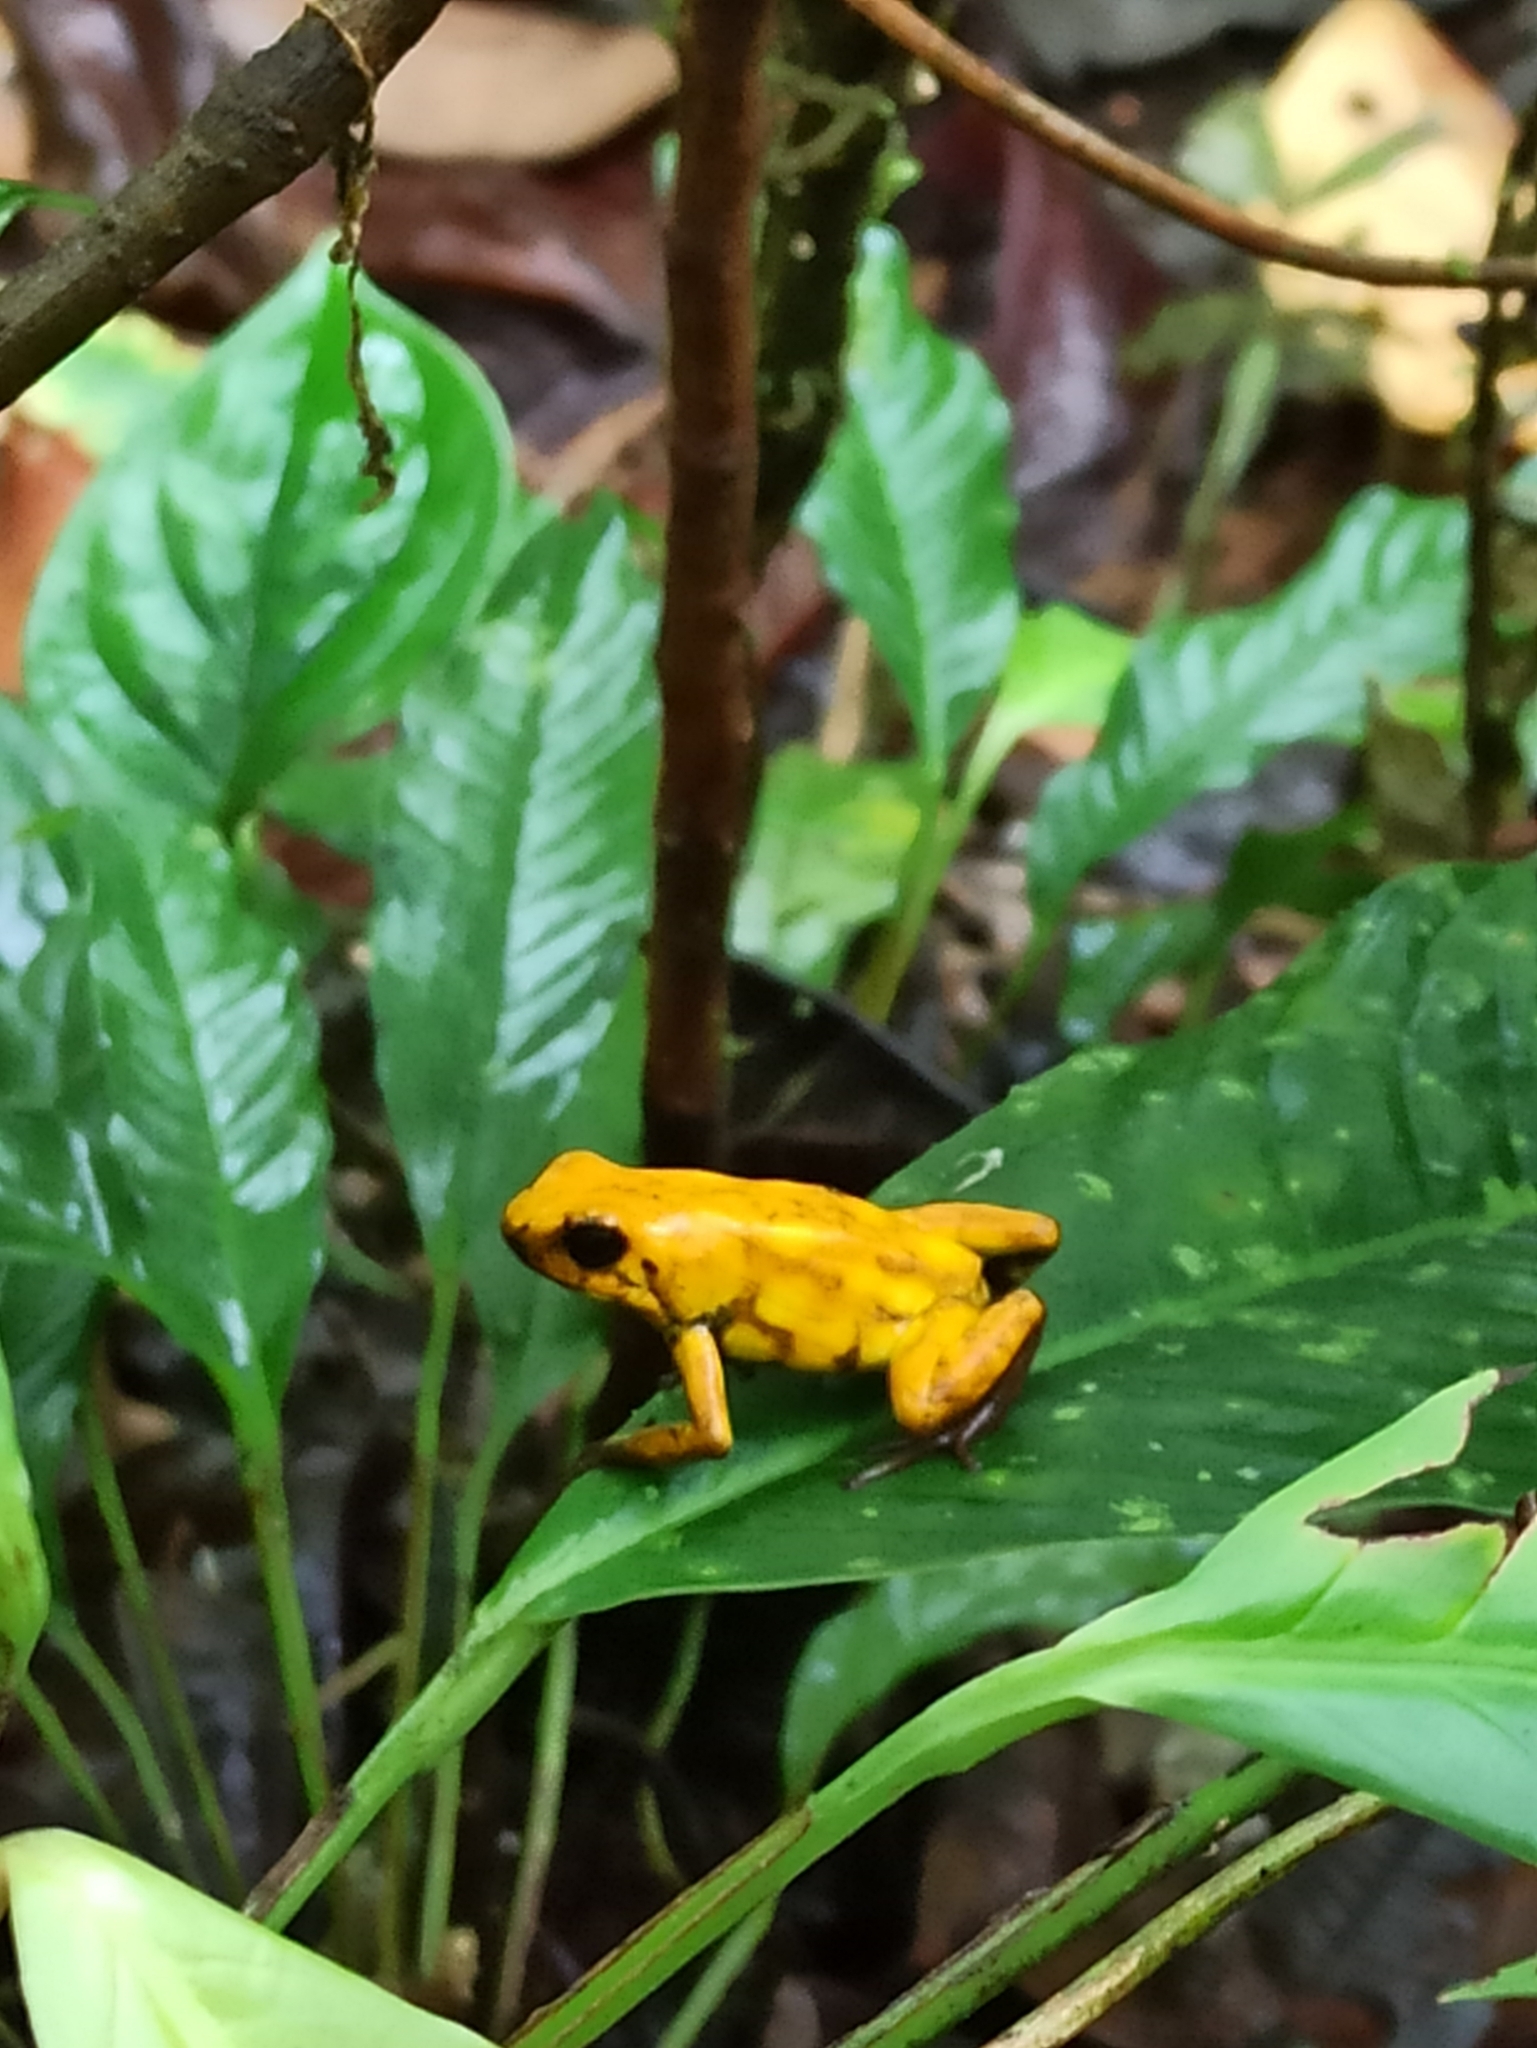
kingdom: Animalia
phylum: Chordata
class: Amphibia
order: Anura
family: Dendrobatidae
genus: Oophaga
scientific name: Oophaga sylvatica
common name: Little-devil poison frog
